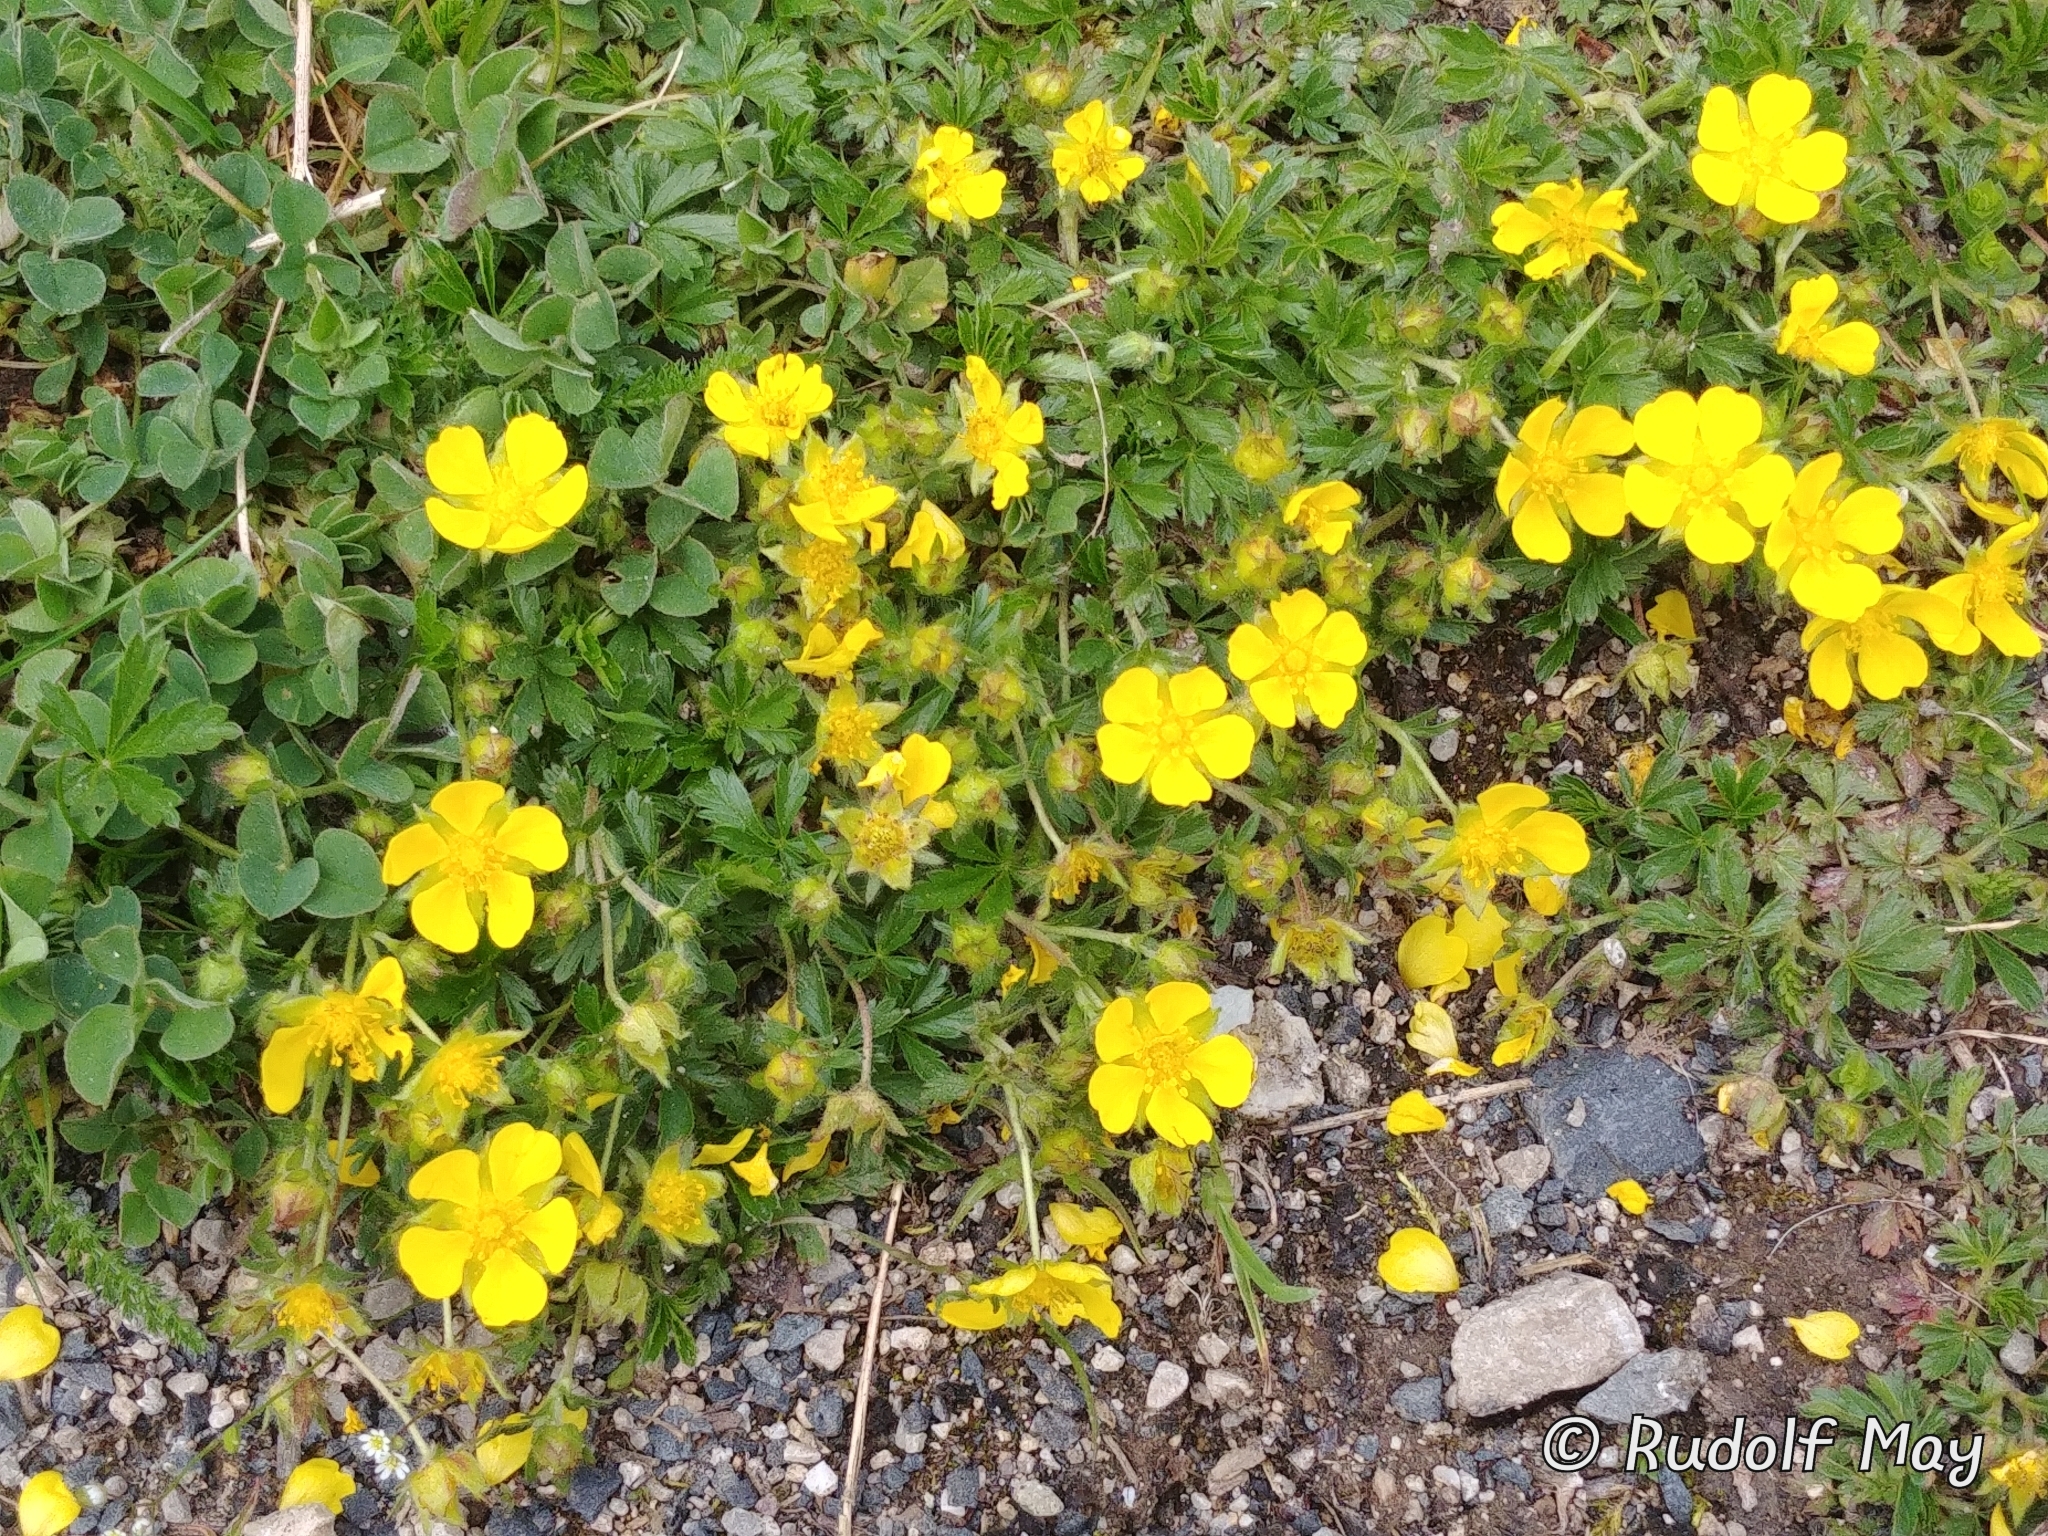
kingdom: Plantae
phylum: Tracheophyta
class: Magnoliopsida
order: Rosales
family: Rosaceae
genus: Potentilla
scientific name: Potentilla verna
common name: Spring cinquefoil
